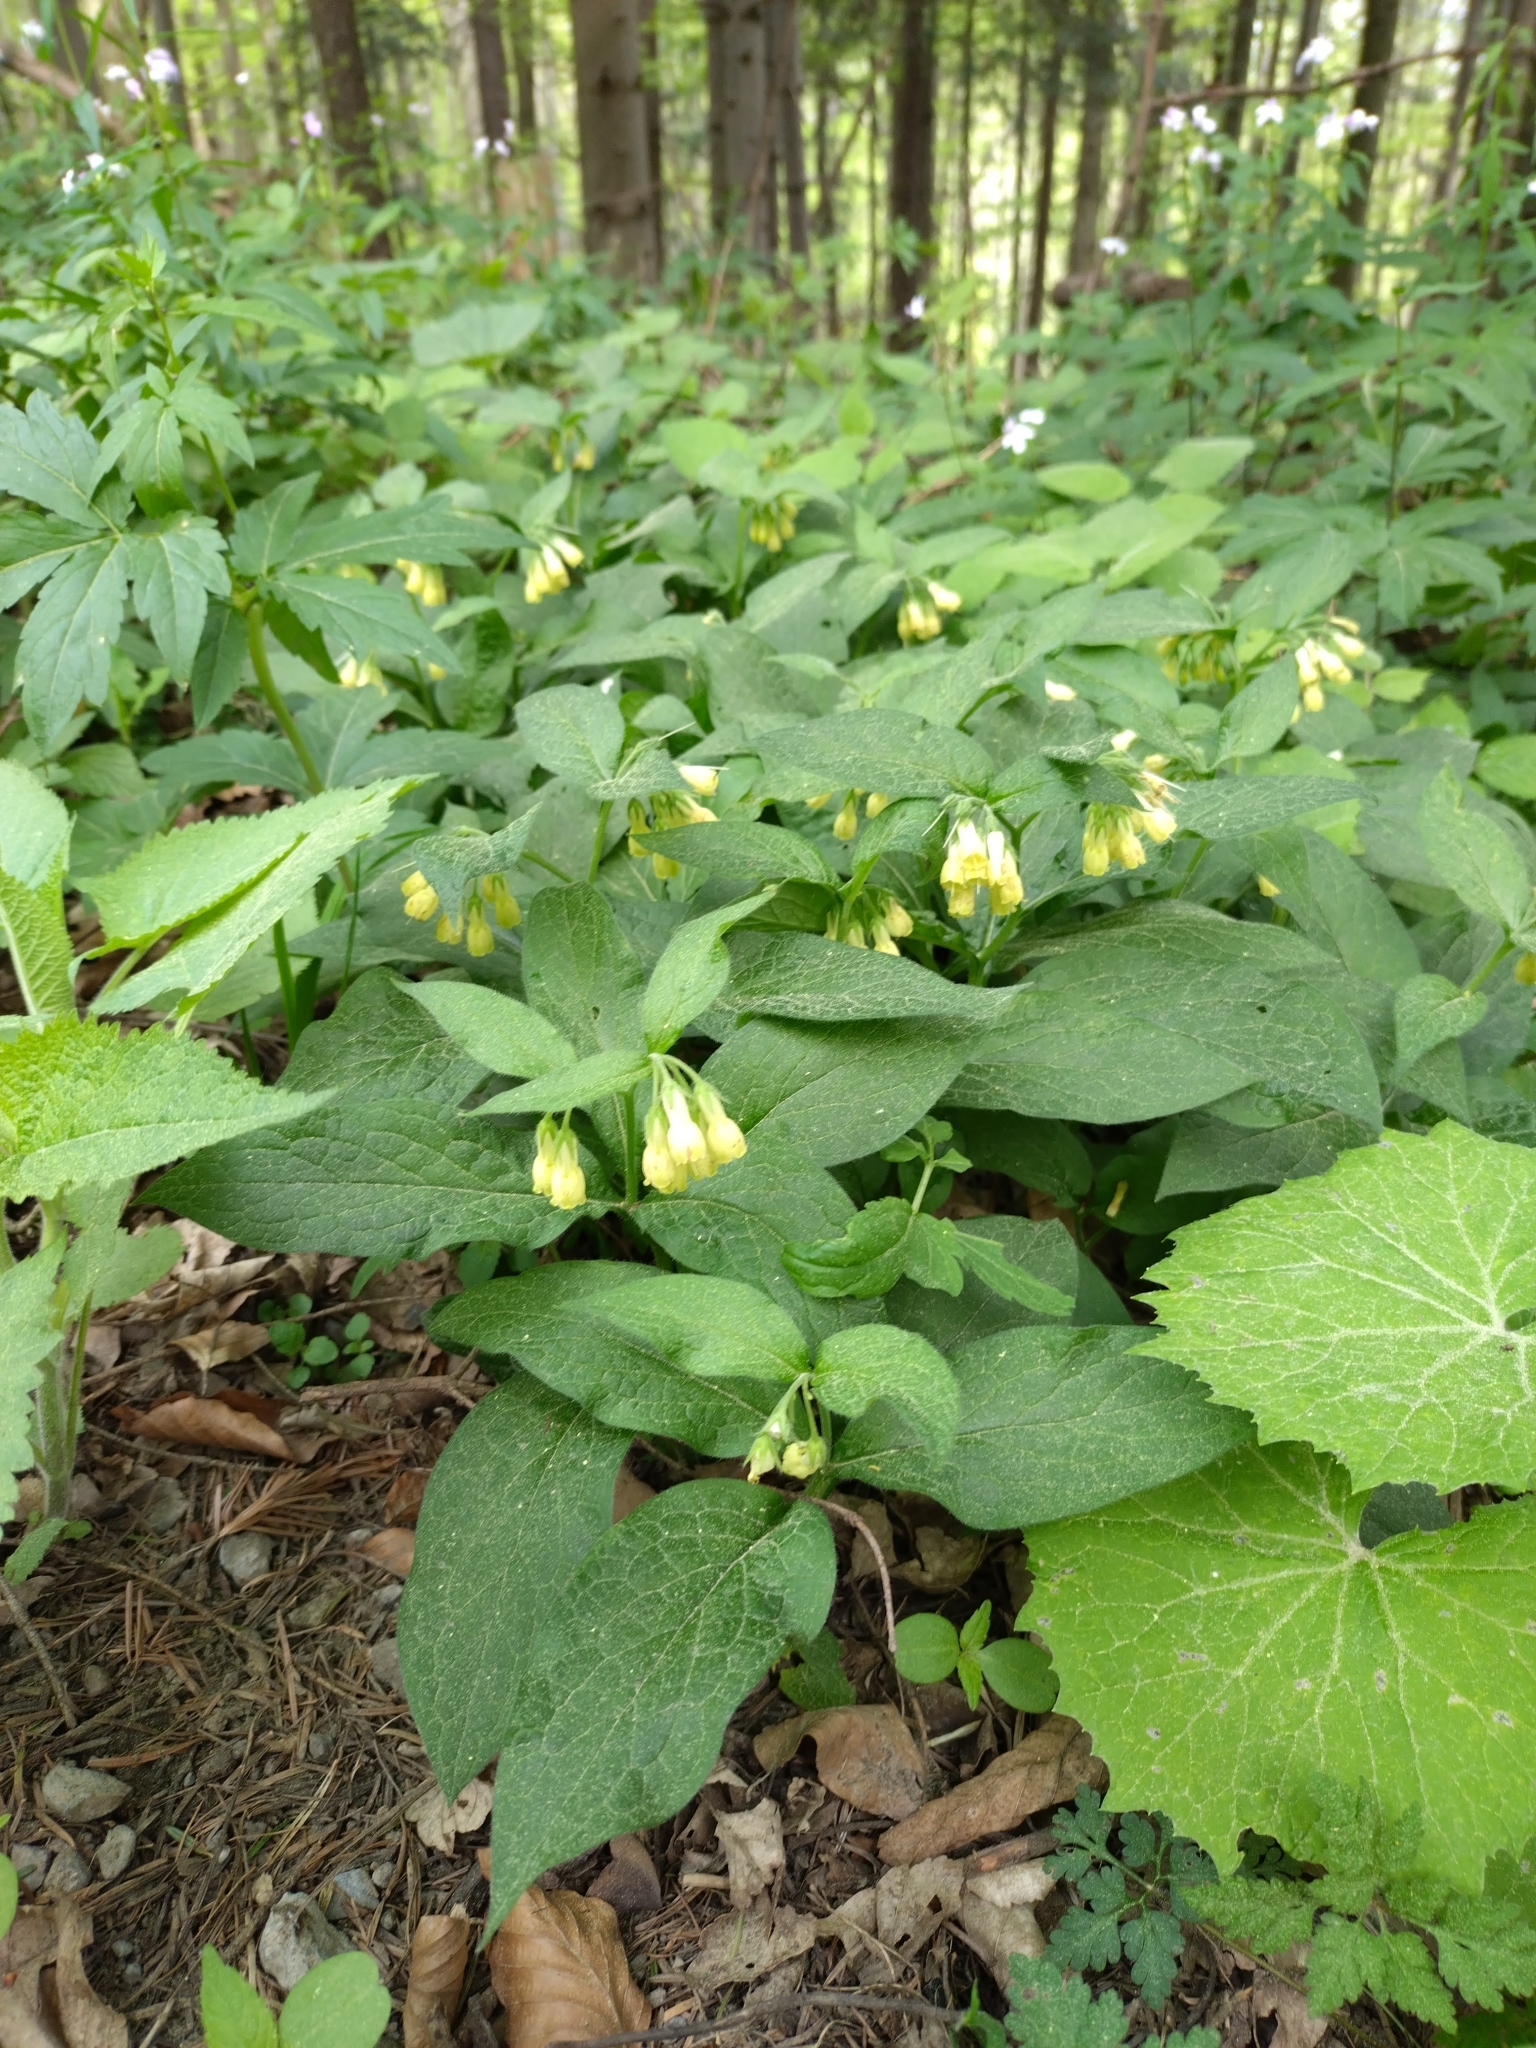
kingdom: Plantae
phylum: Tracheophyta
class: Magnoliopsida
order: Boraginales
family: Boraginaceae
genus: Symphytum
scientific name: Symphytum tuberosum
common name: Tuberous comfrey
